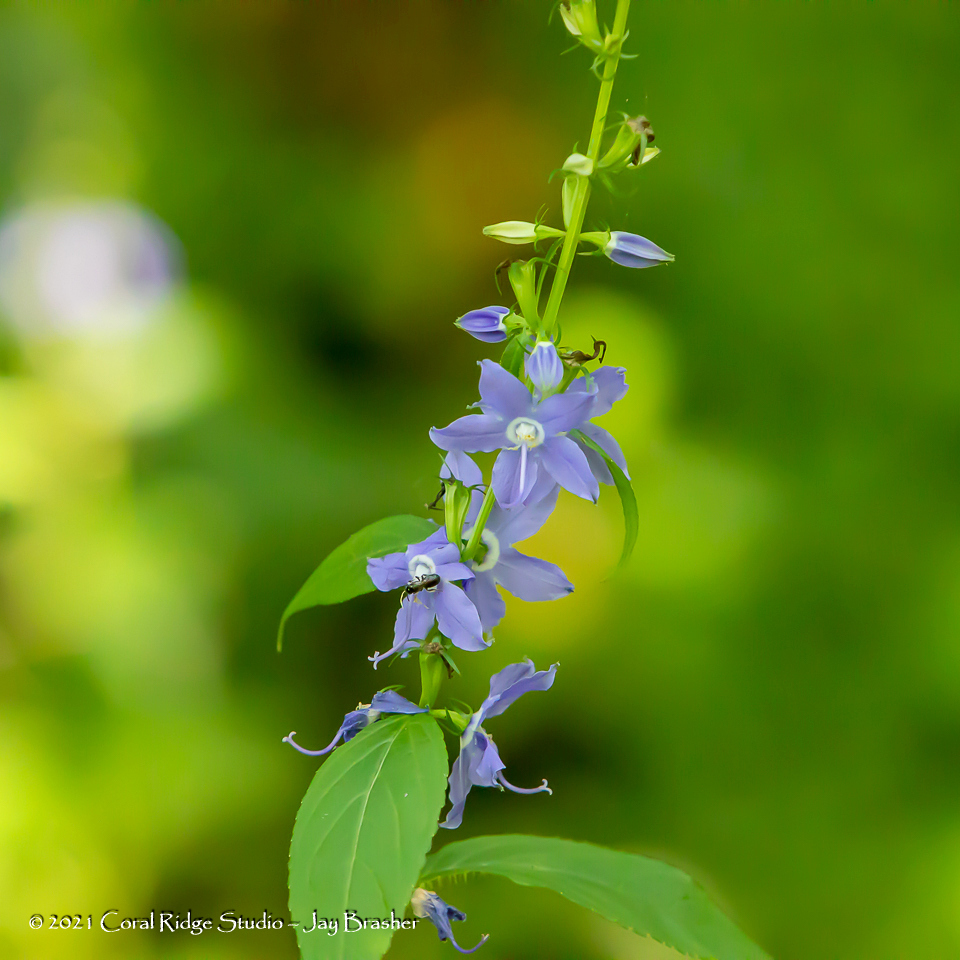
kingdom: Plantae
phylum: Tracheophyta
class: Magnoliopsida
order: Asterales
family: Campanulaceae
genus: Campanulastrum
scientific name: Campanulastrum americanum
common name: American bellflower
